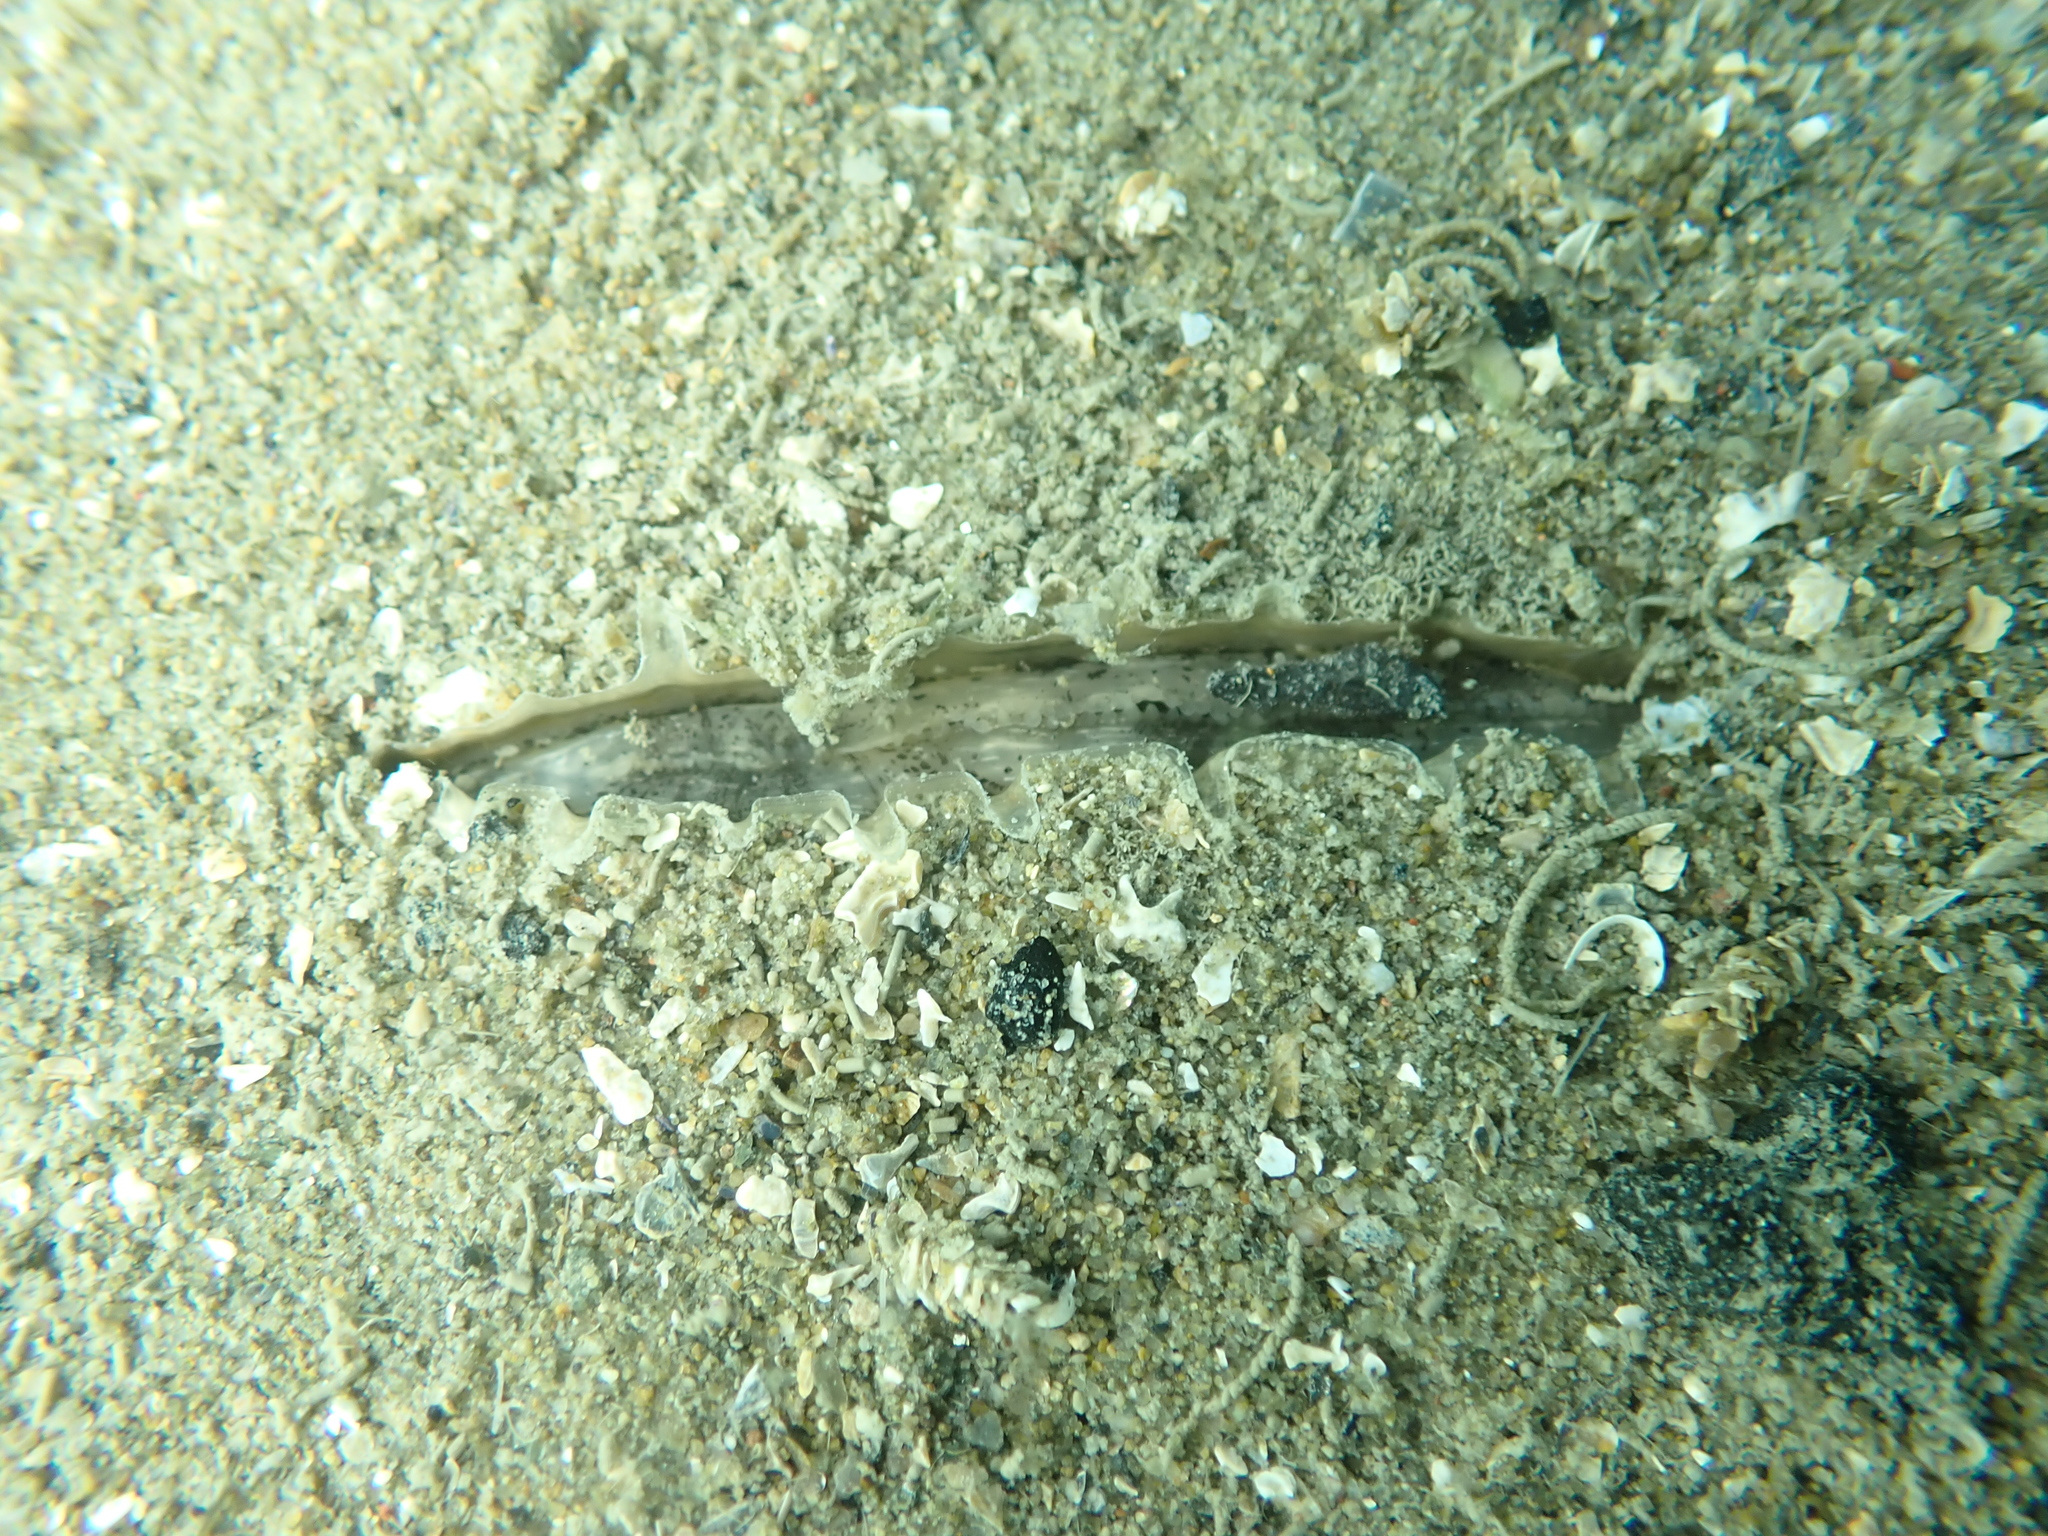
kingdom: Animalia
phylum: Mollusca
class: Bivalvia
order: Ostreida
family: Pinnidae
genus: Atrina
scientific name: Atrina zelandica
